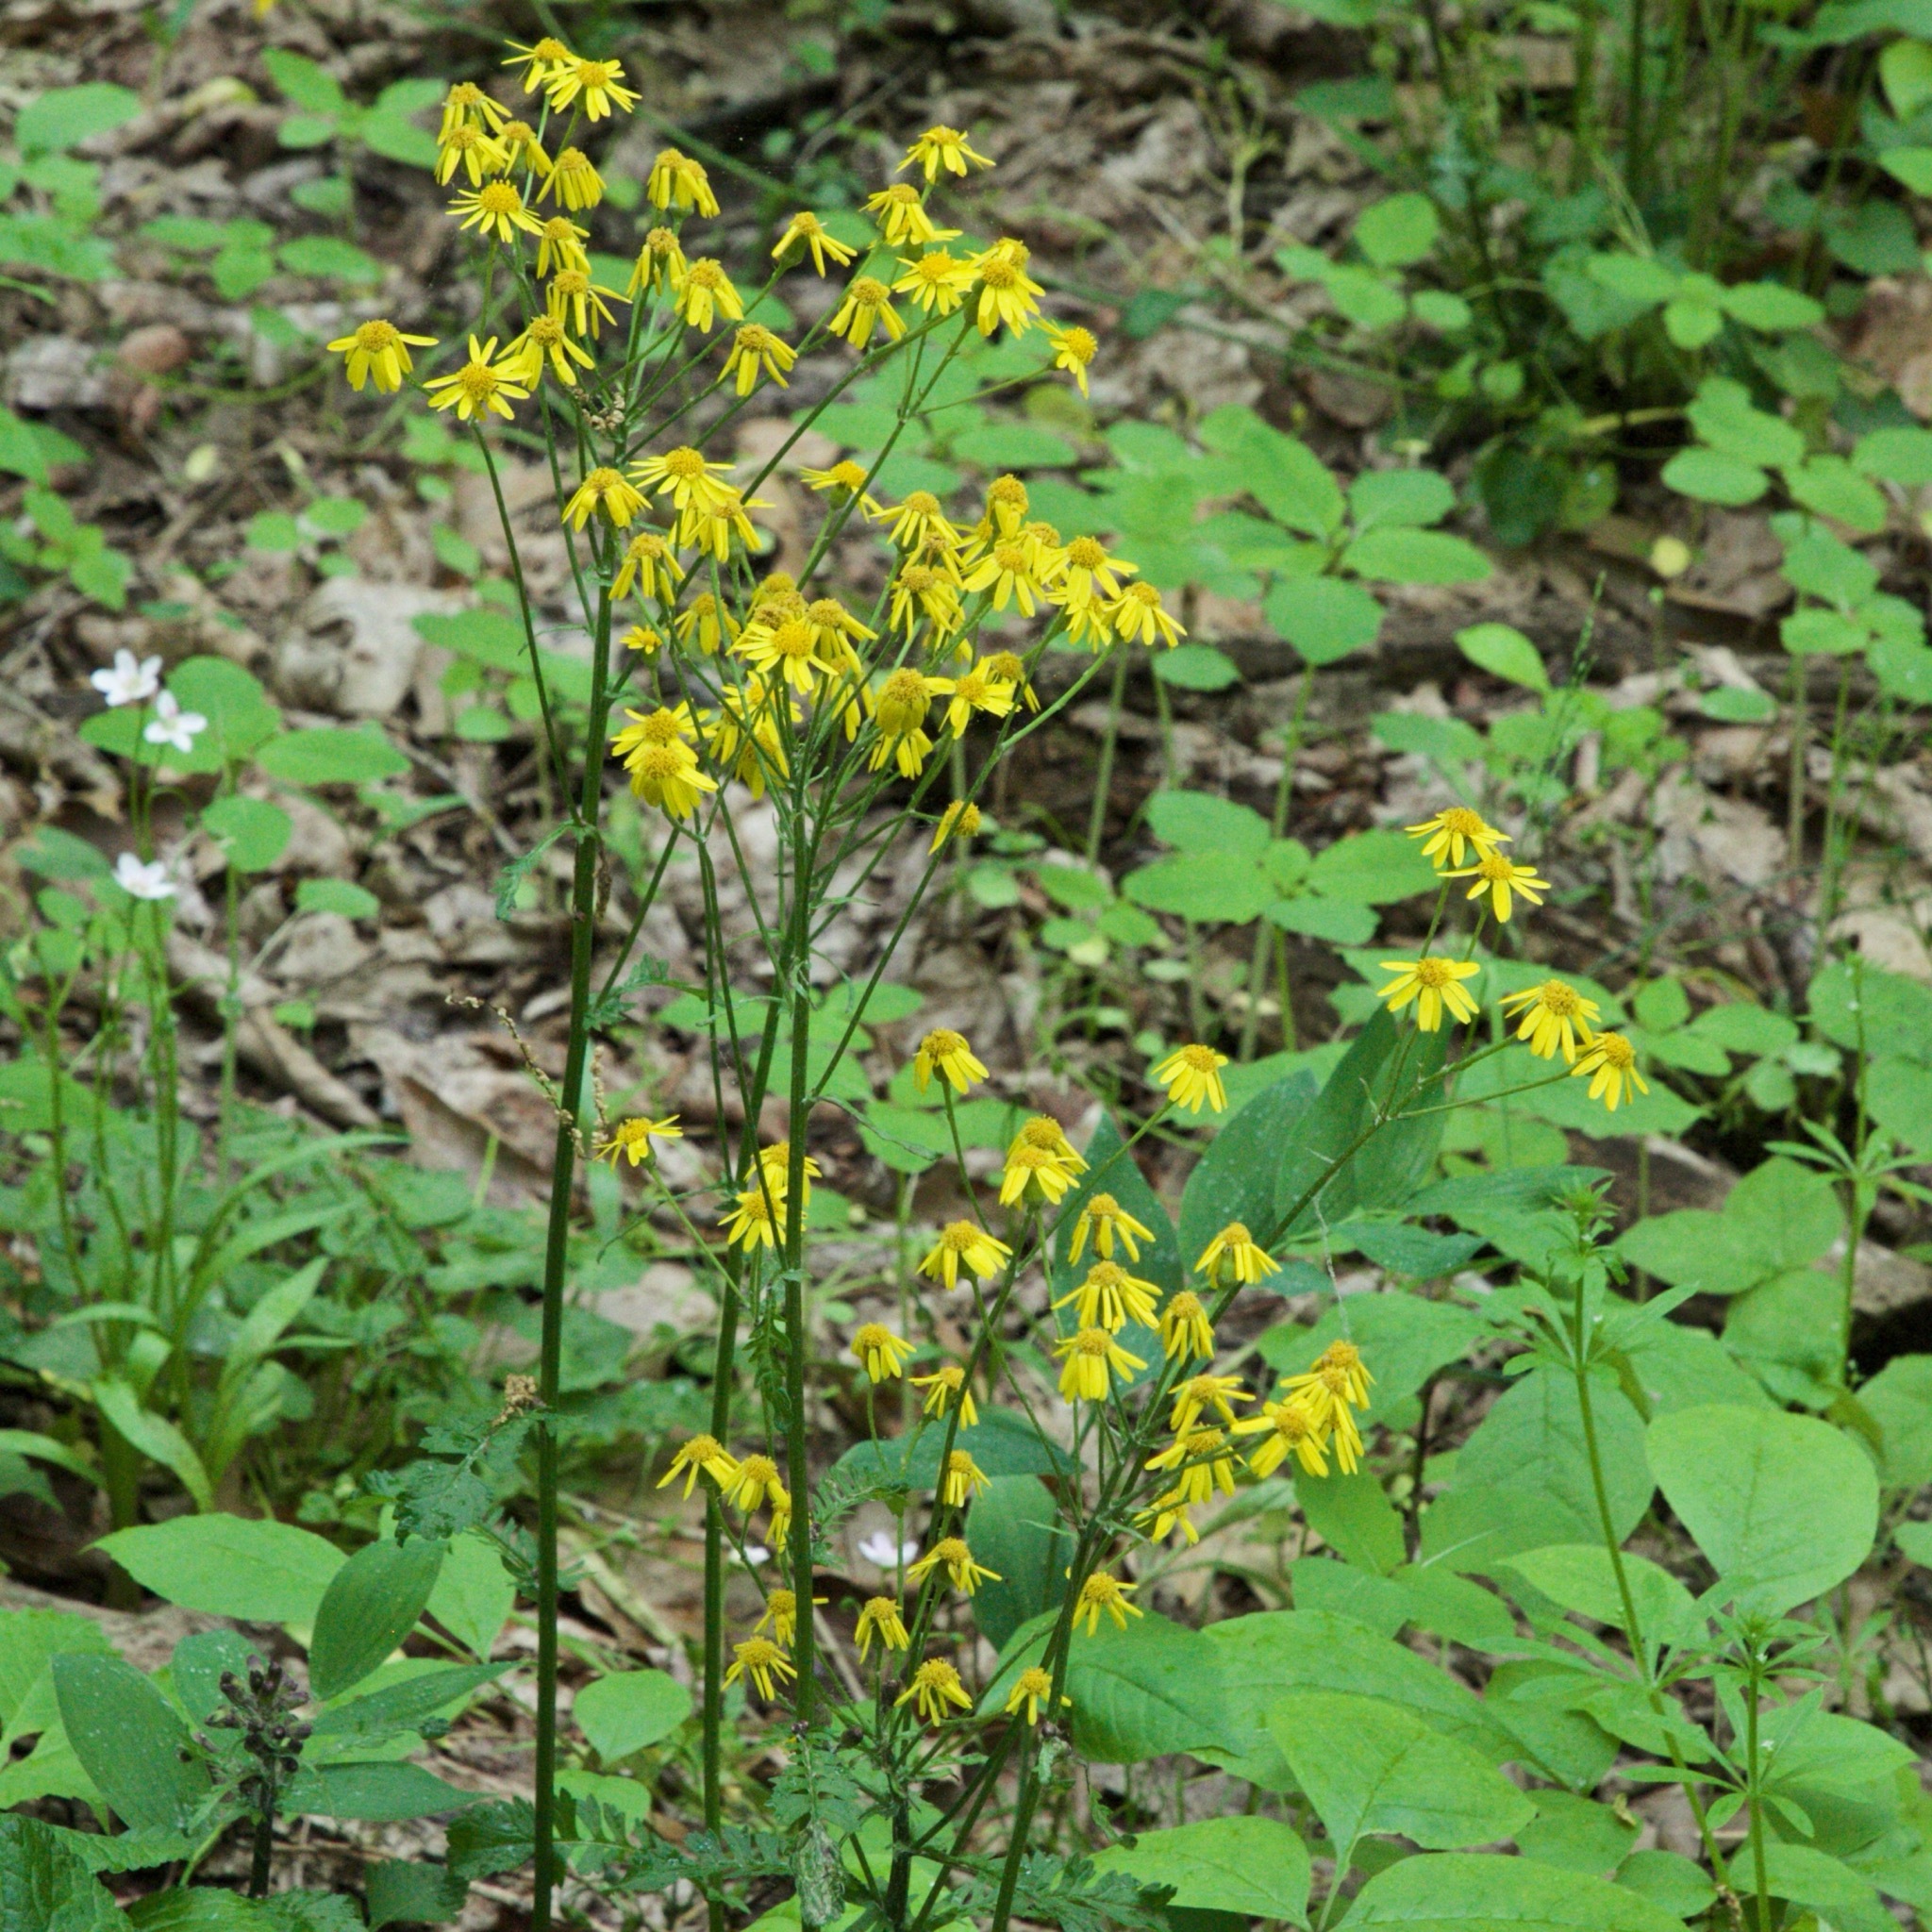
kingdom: Plantae
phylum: Tracheophyta
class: Magnoliopsida
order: Asterales
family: Asteraceae
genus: Packera
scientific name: Packera aurea
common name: Golden groundsel
